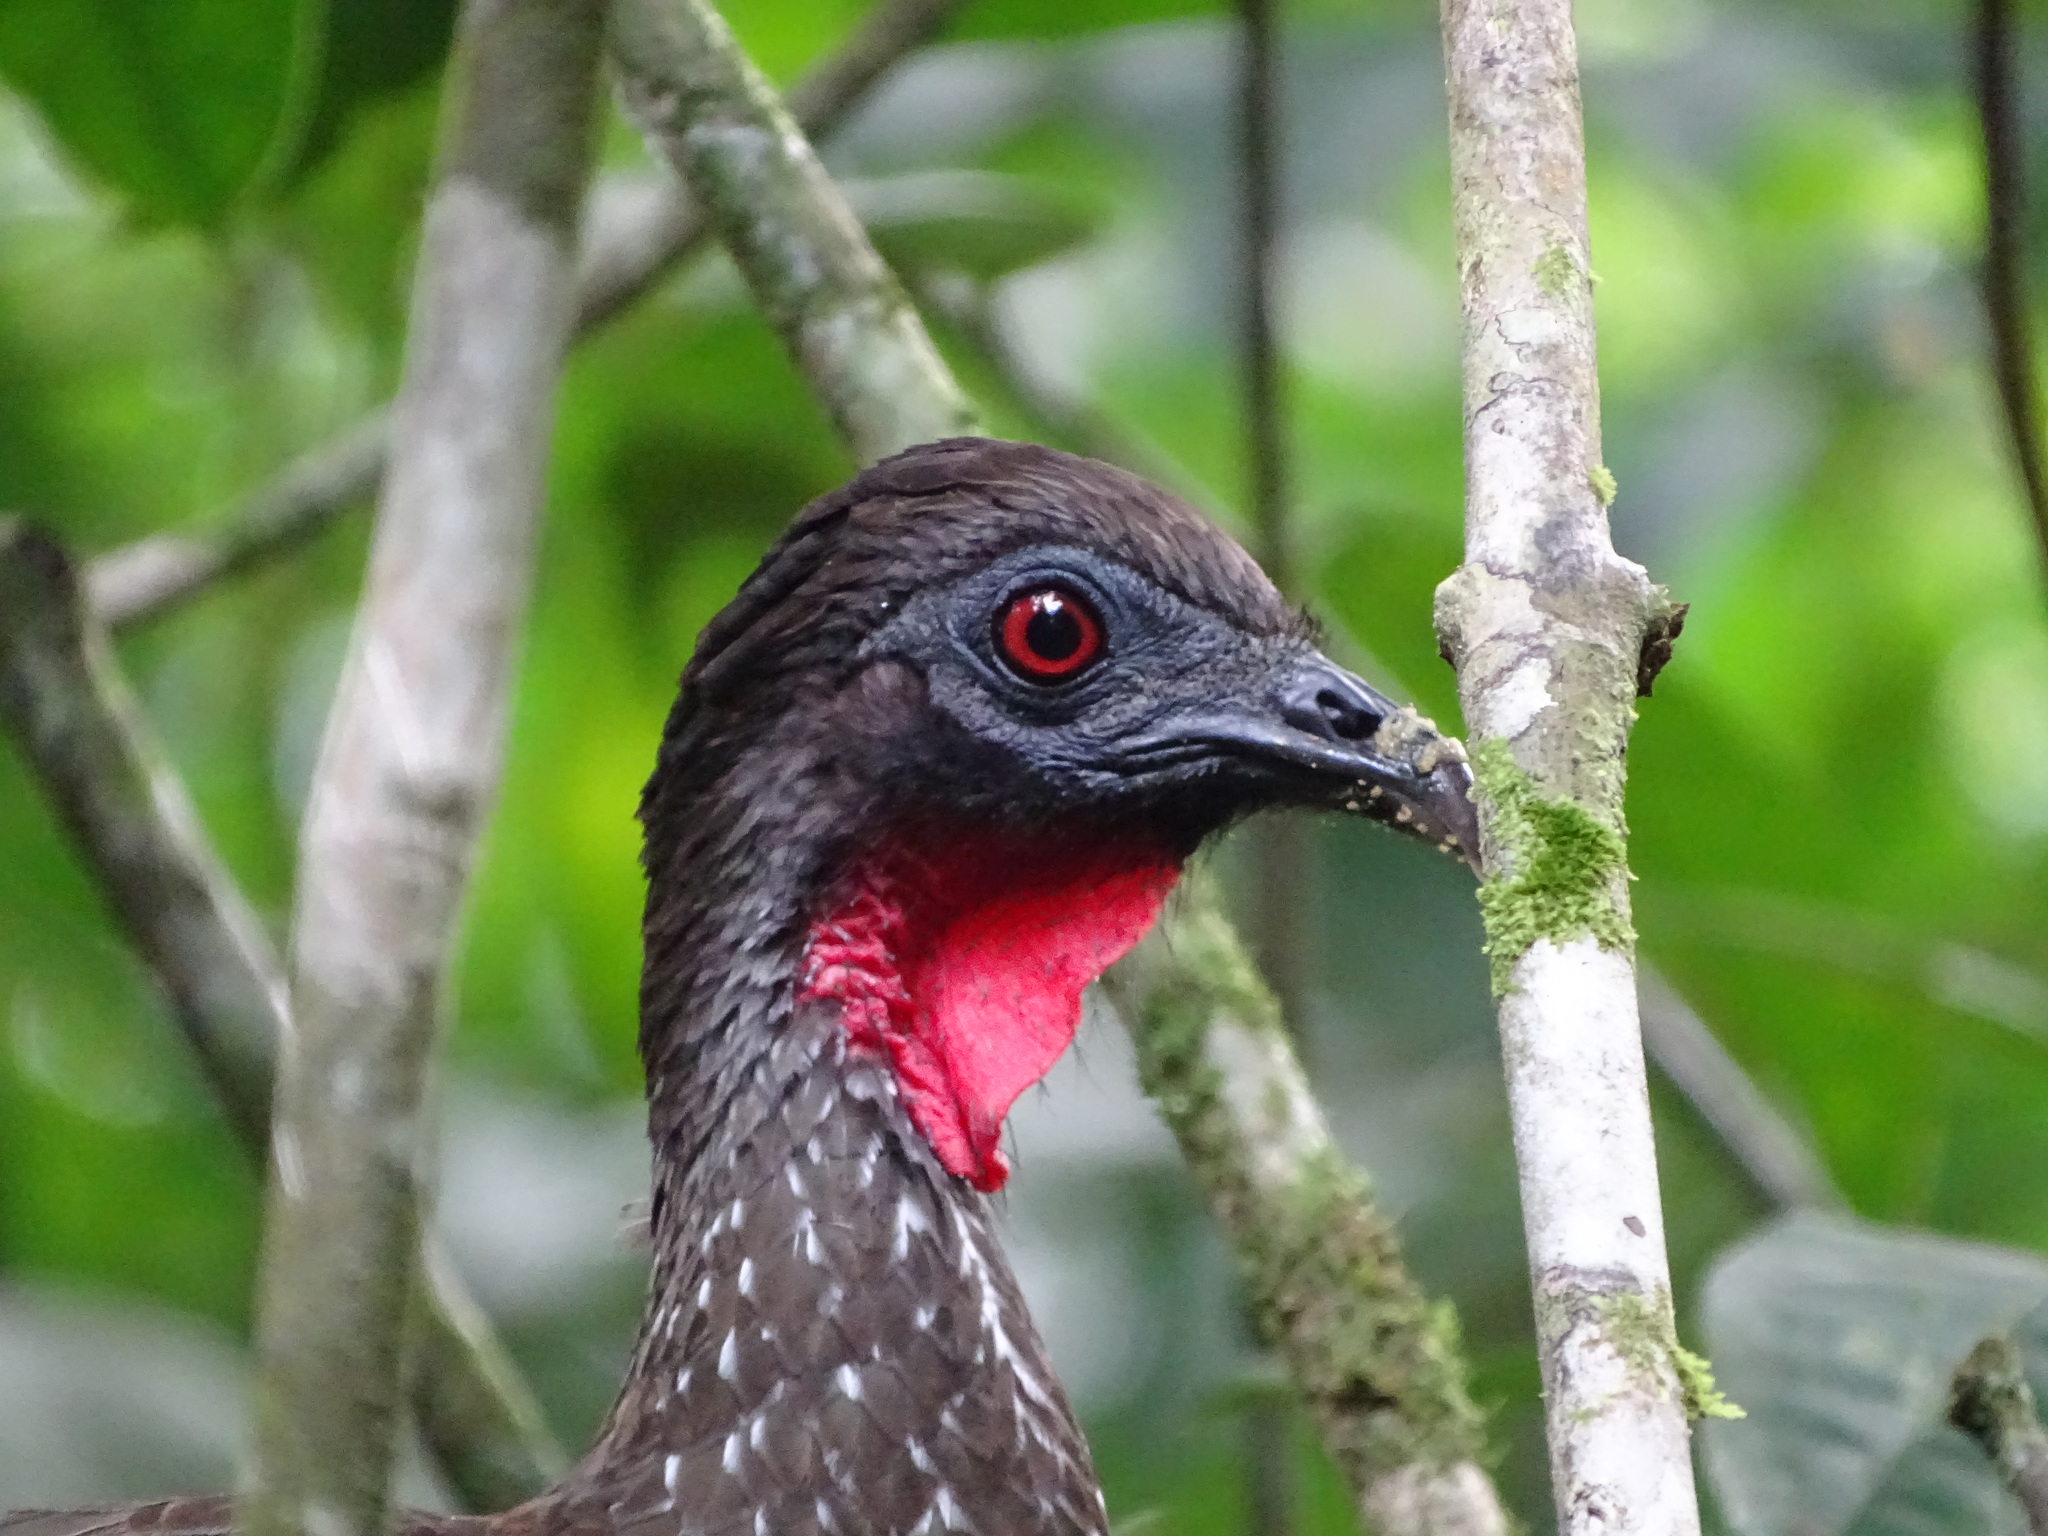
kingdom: Animalia
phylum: Chordata
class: Aves
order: Galliformes
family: Cracidae
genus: Penelope
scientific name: Penelope purpurascens
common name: Crested guan
